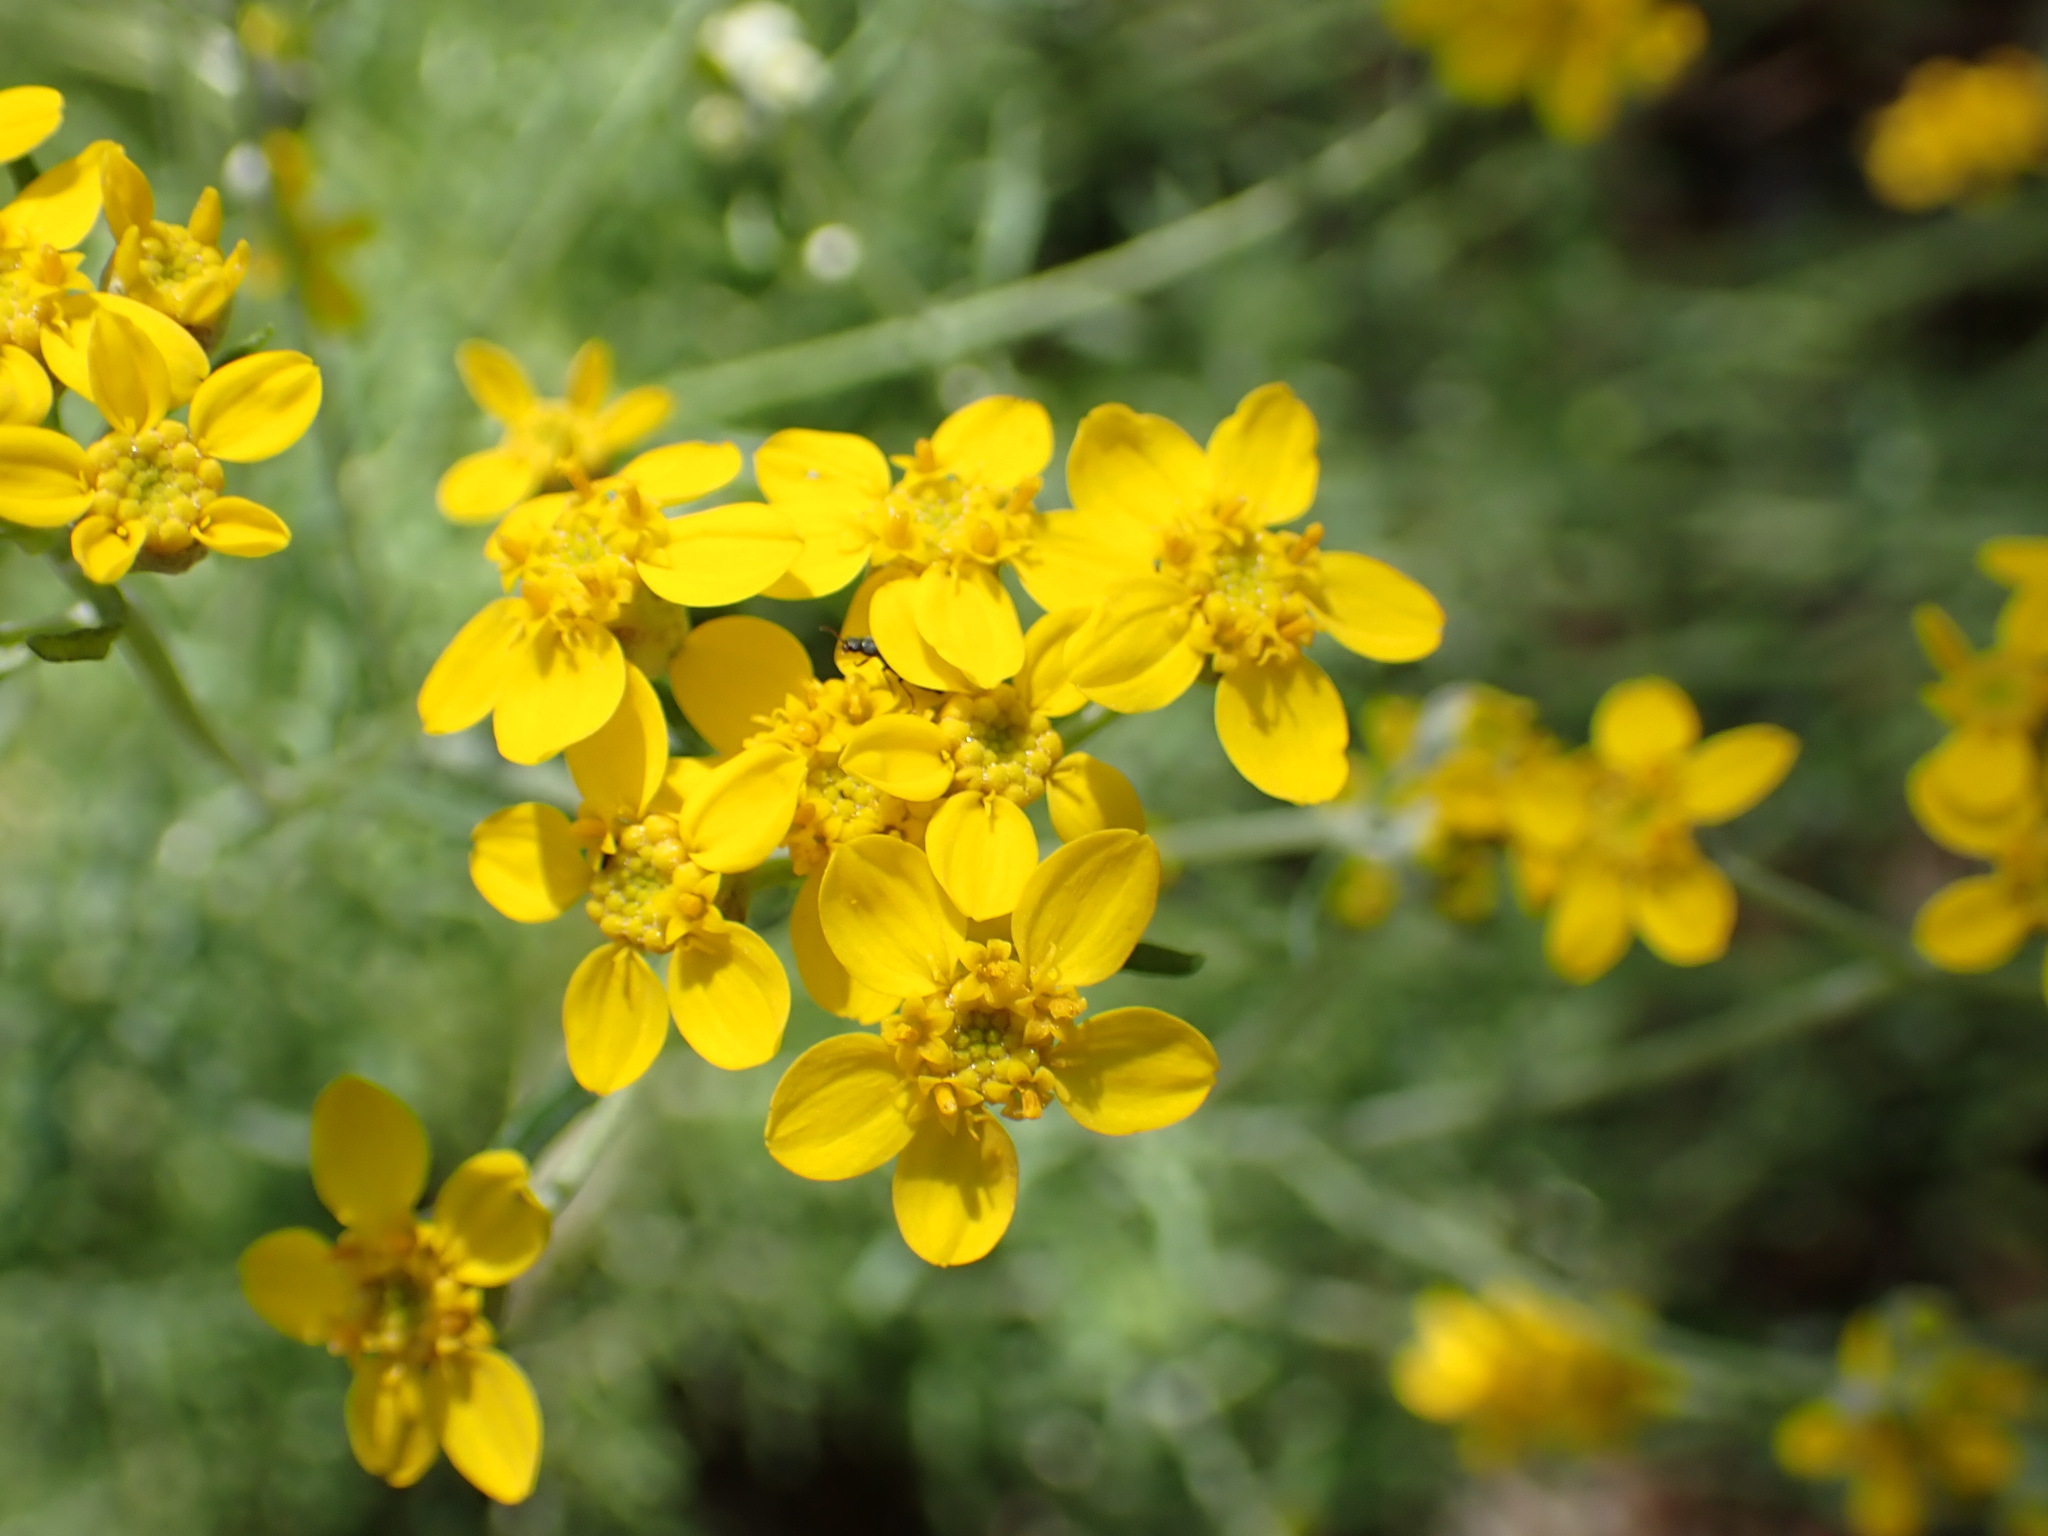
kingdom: Plantae
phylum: Tracheophyta
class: Magnoliopsida
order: Asterales
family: Asteraceae
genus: Eriophyllum
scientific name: Eriophyllum confertiflorum
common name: Golden-yarrow
